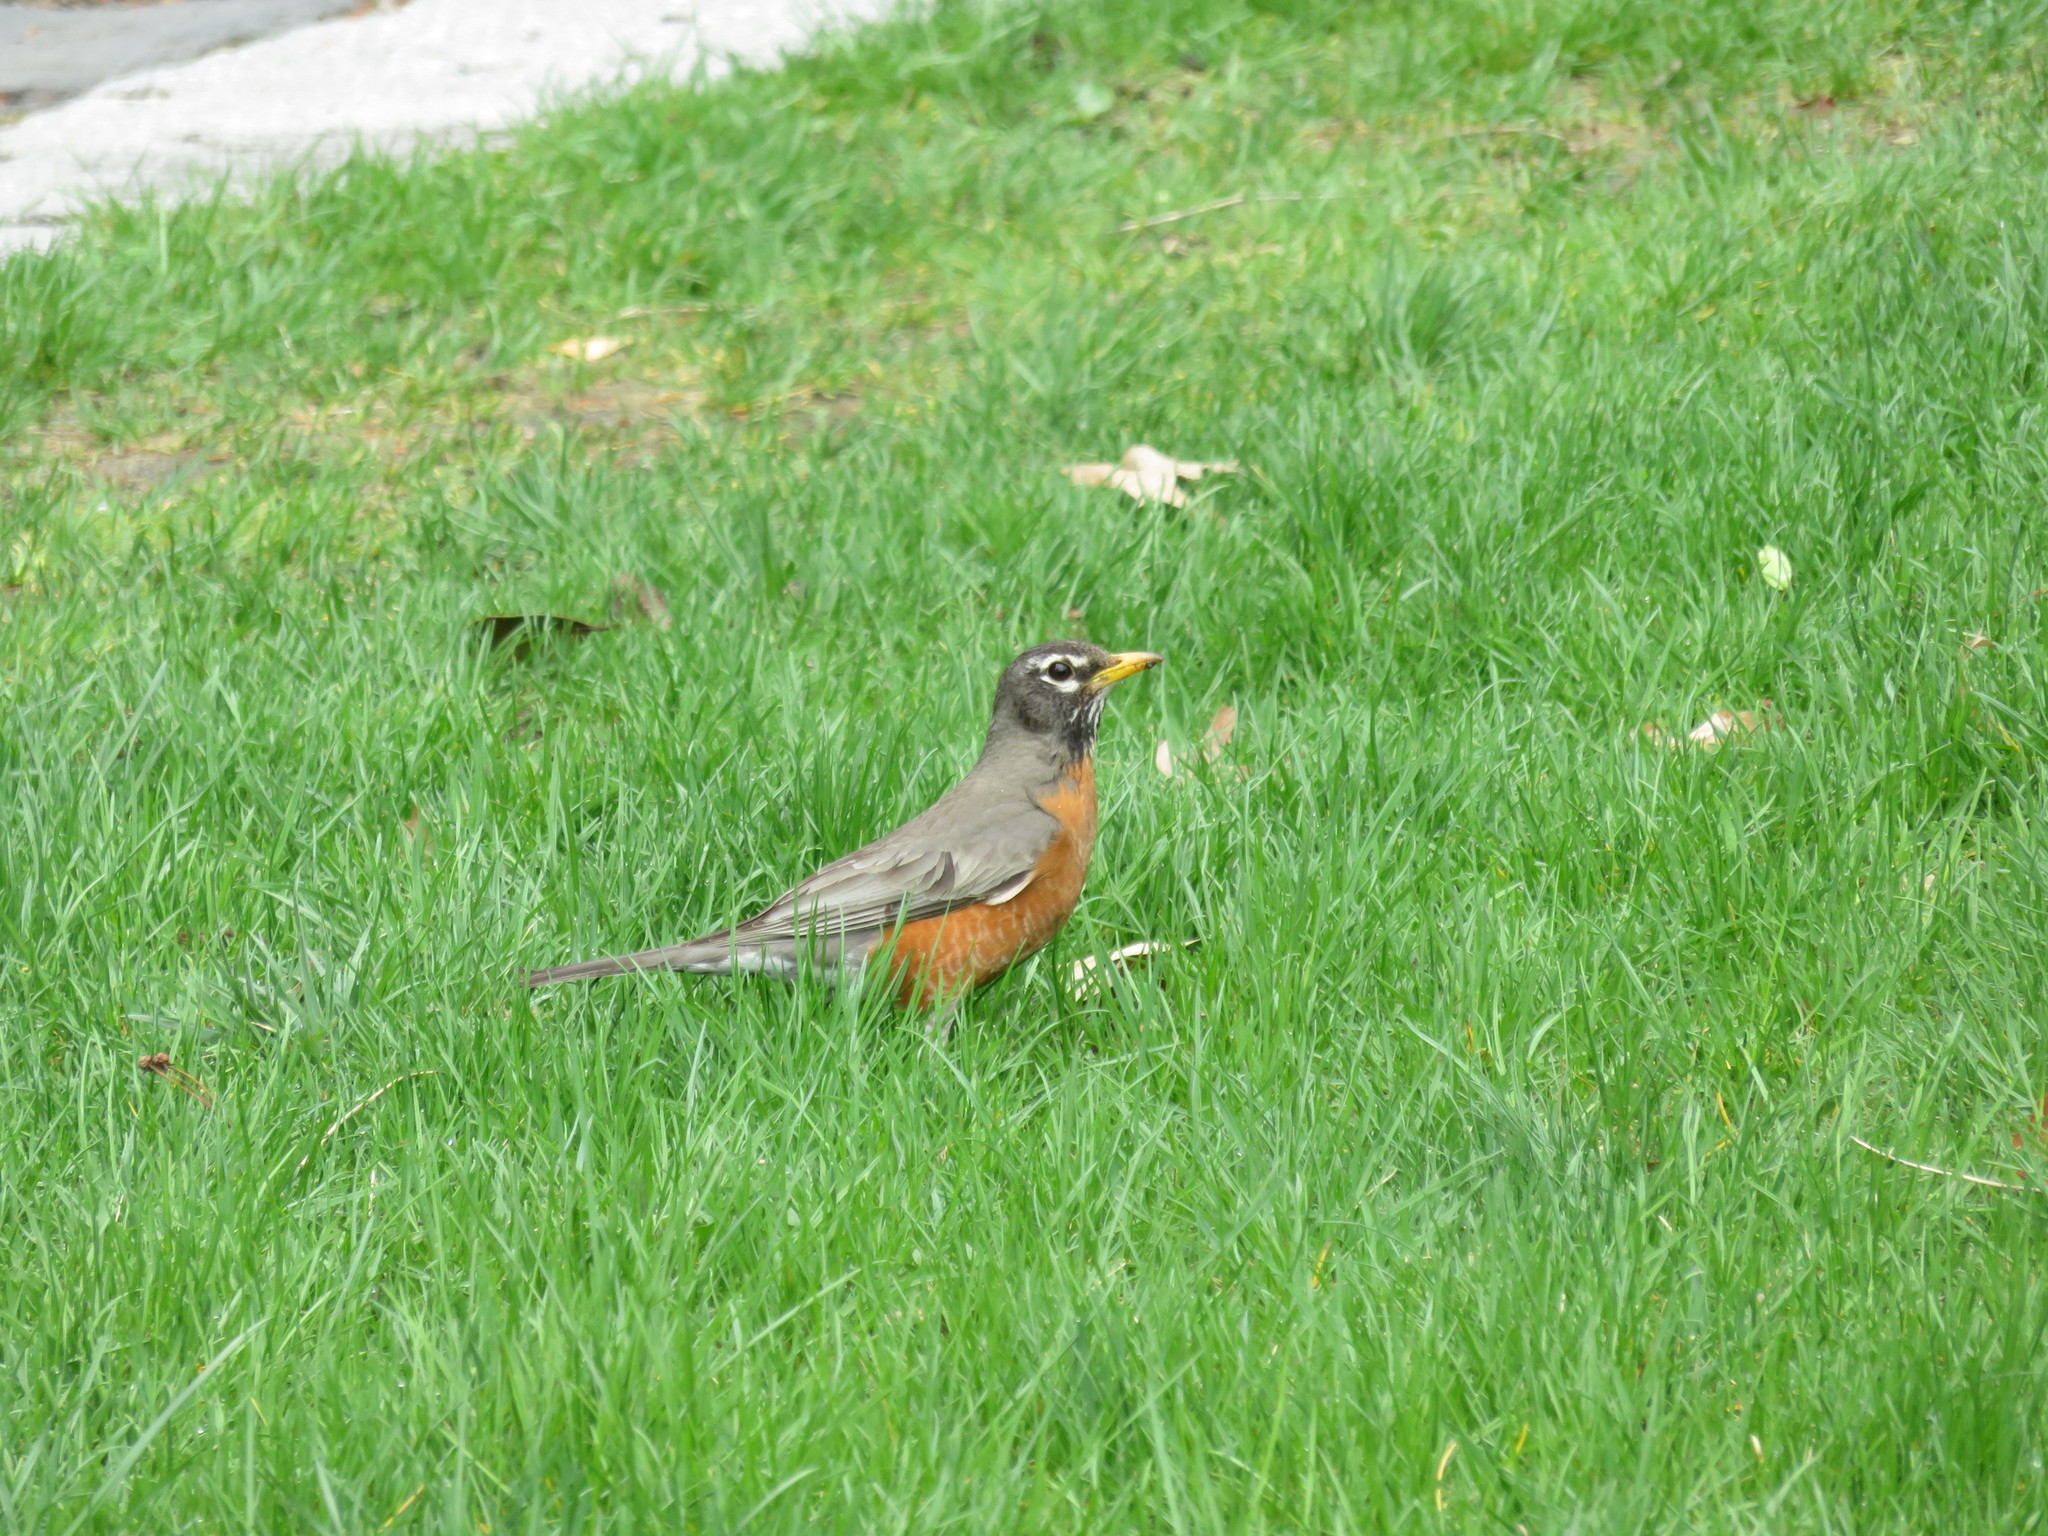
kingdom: Animalia
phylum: Chordata
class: Aves
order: Passeriformes
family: Turdidae
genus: Turdus
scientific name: Turdus migratorius
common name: American robin
